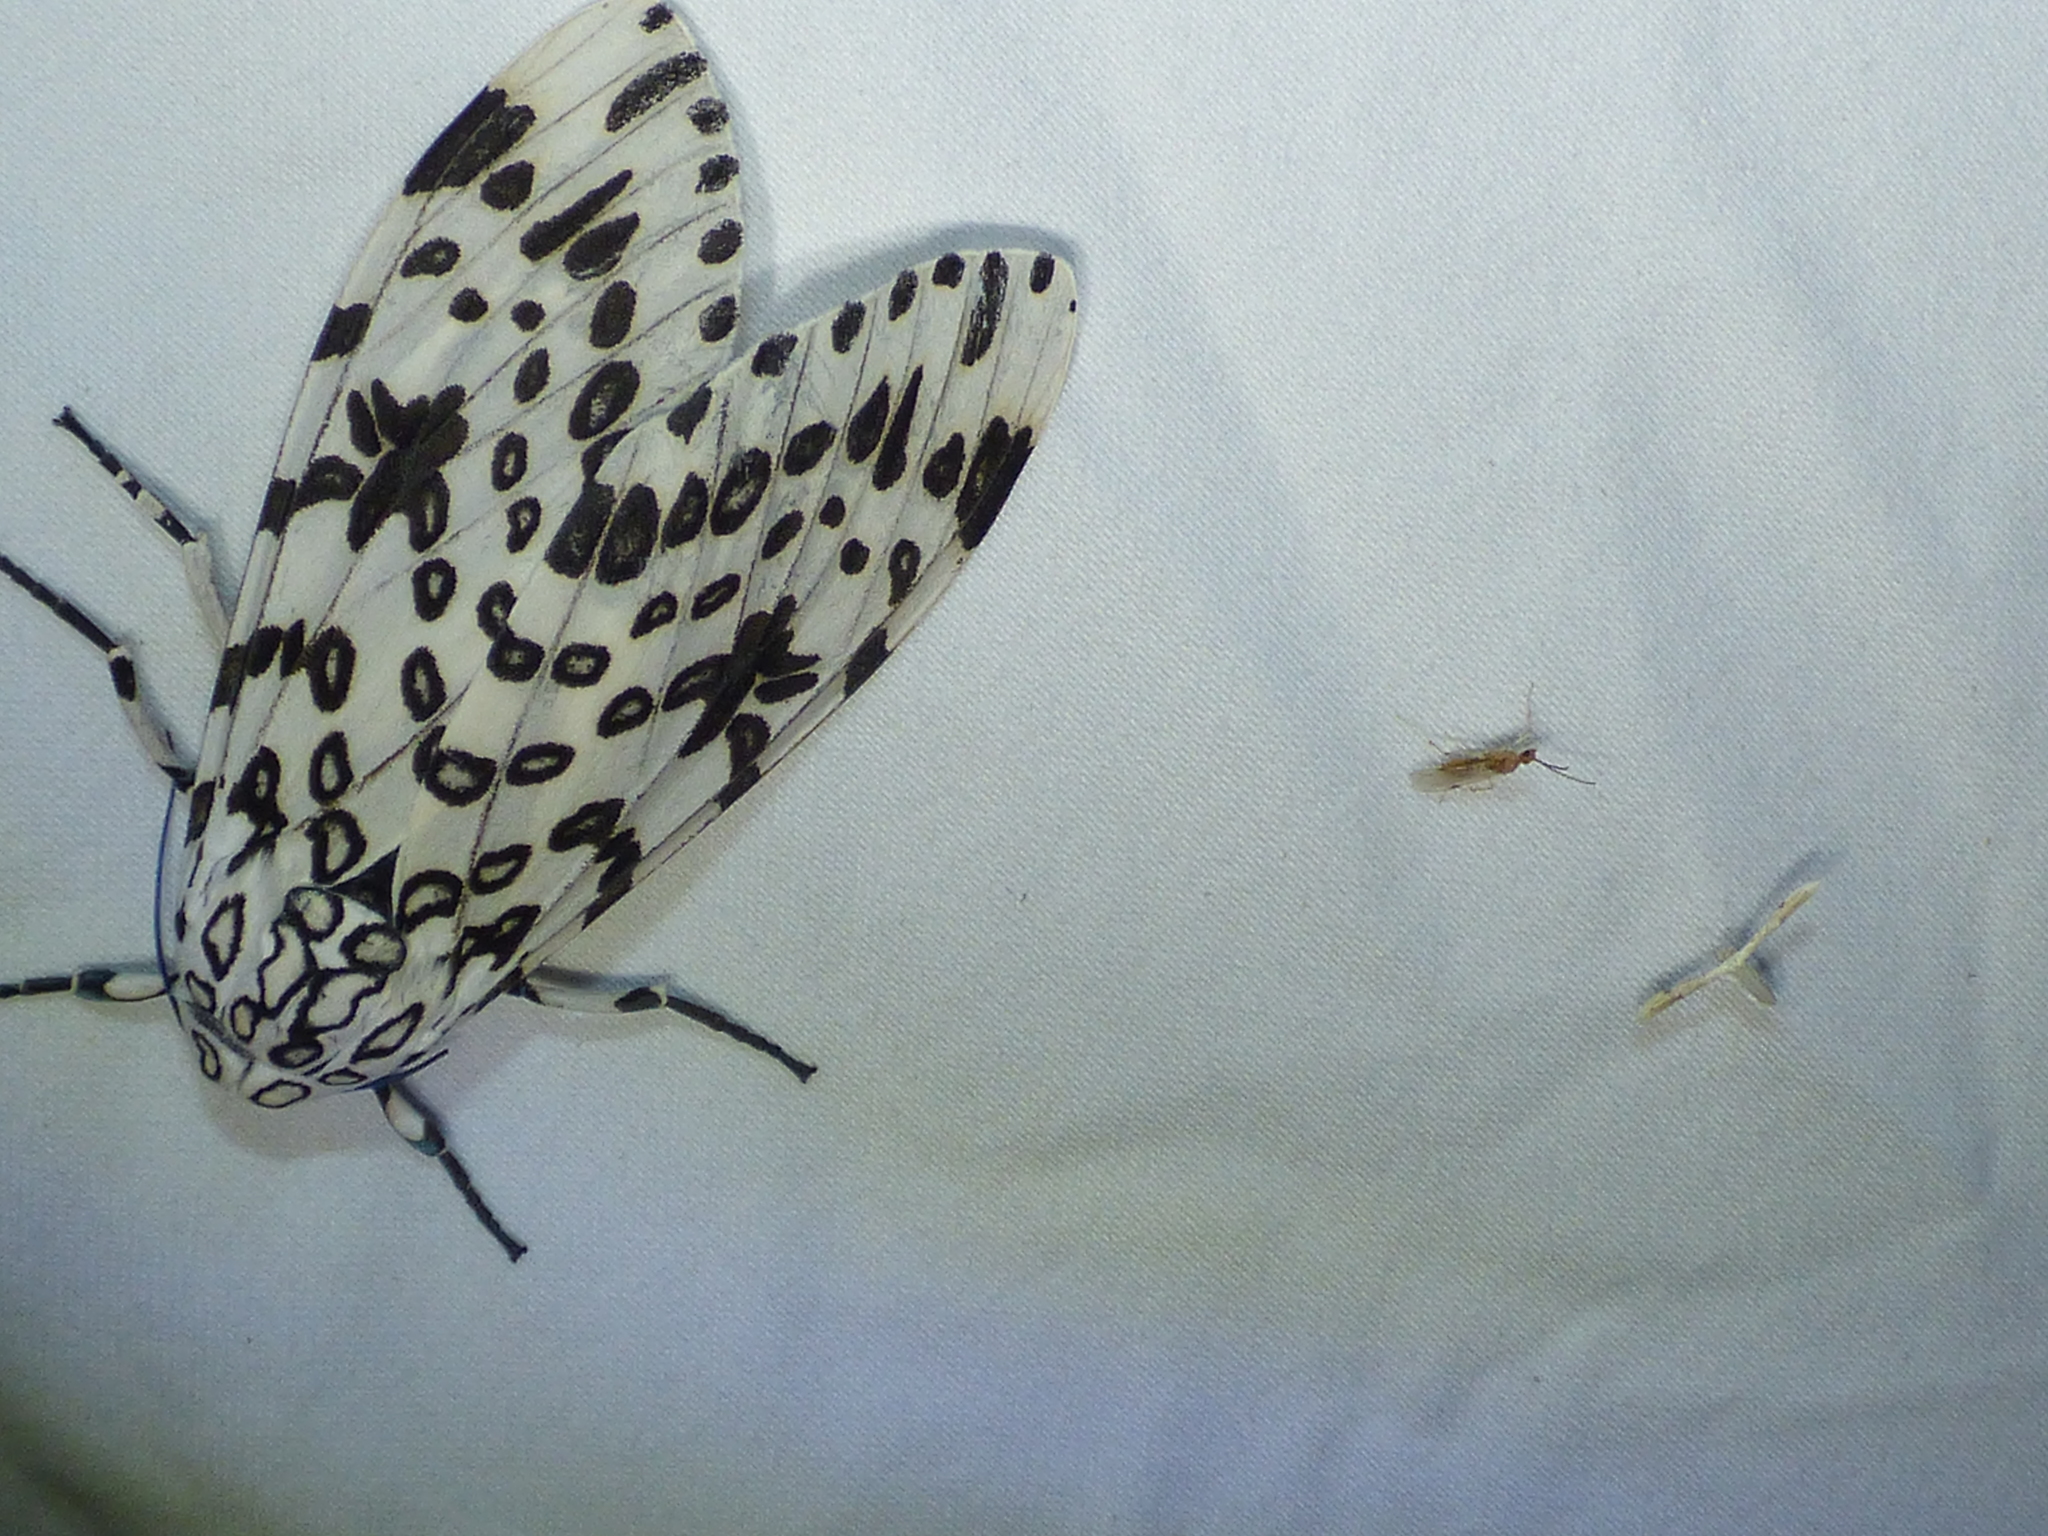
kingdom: Animalia
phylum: Arthropoda
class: Insecta
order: Lepidoptera
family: Pterophoridae
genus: Adaina
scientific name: Adaina
